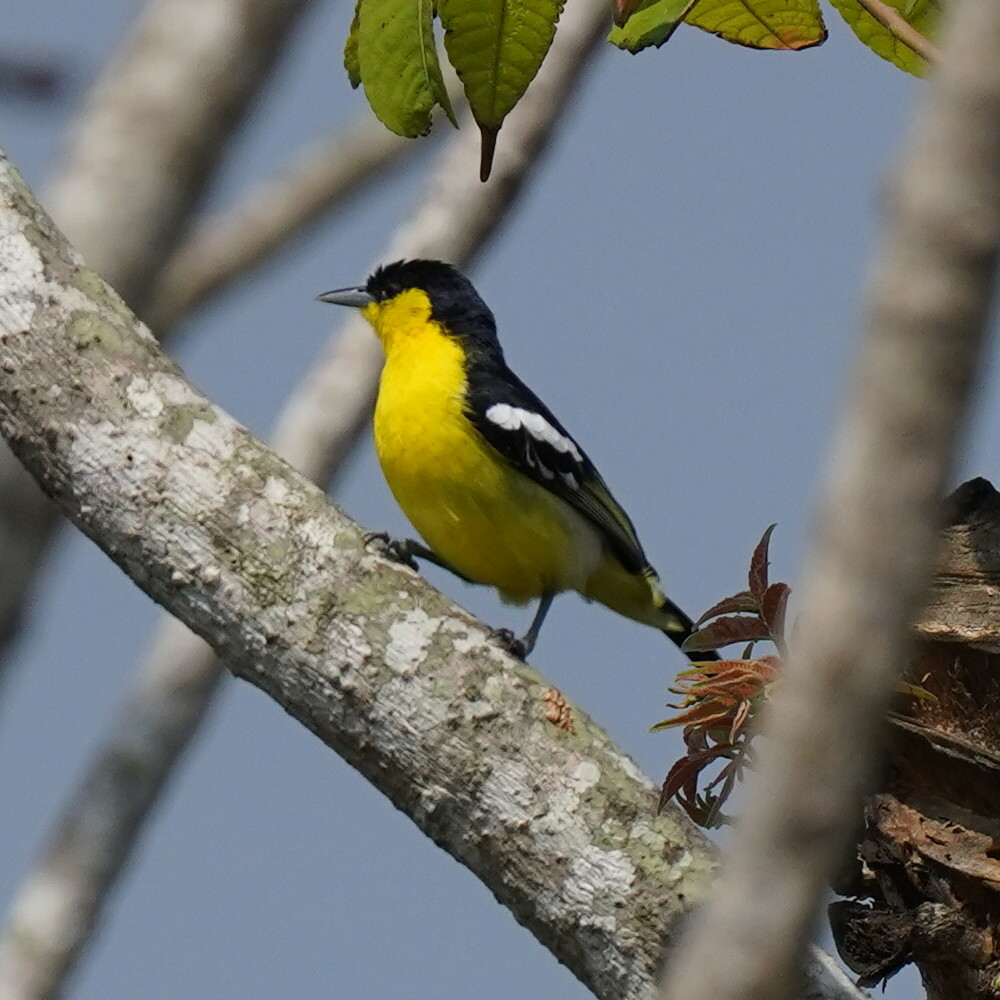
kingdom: Animalia
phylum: Chordata
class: Aves
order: Passeriformes
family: Aegithinidae
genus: Aegithina
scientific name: Aegithina tiphia
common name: Common iora
